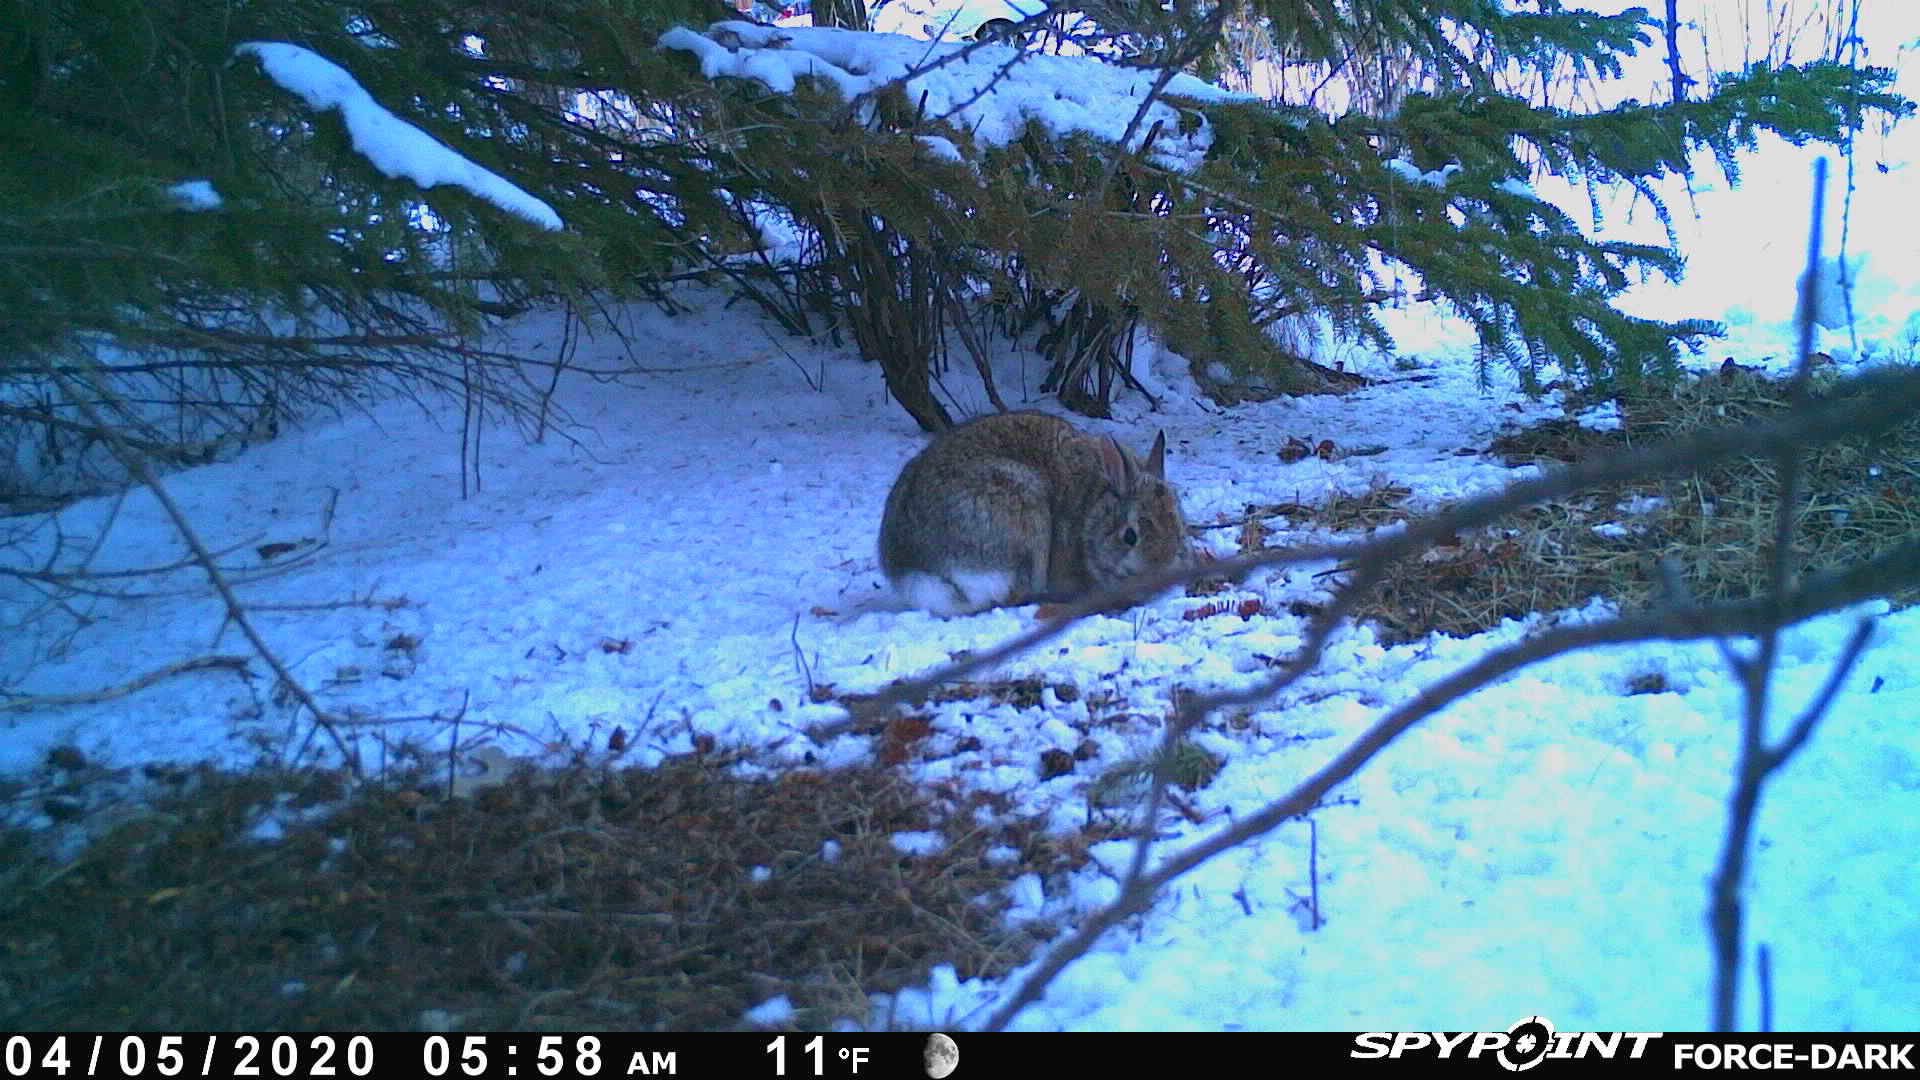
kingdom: Animalia
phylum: Chordata
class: Mammalia
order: Lagomorpha
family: Leporidae
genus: Sylvilagus
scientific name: Sylvilagus floridanus
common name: Eastern cottontail
